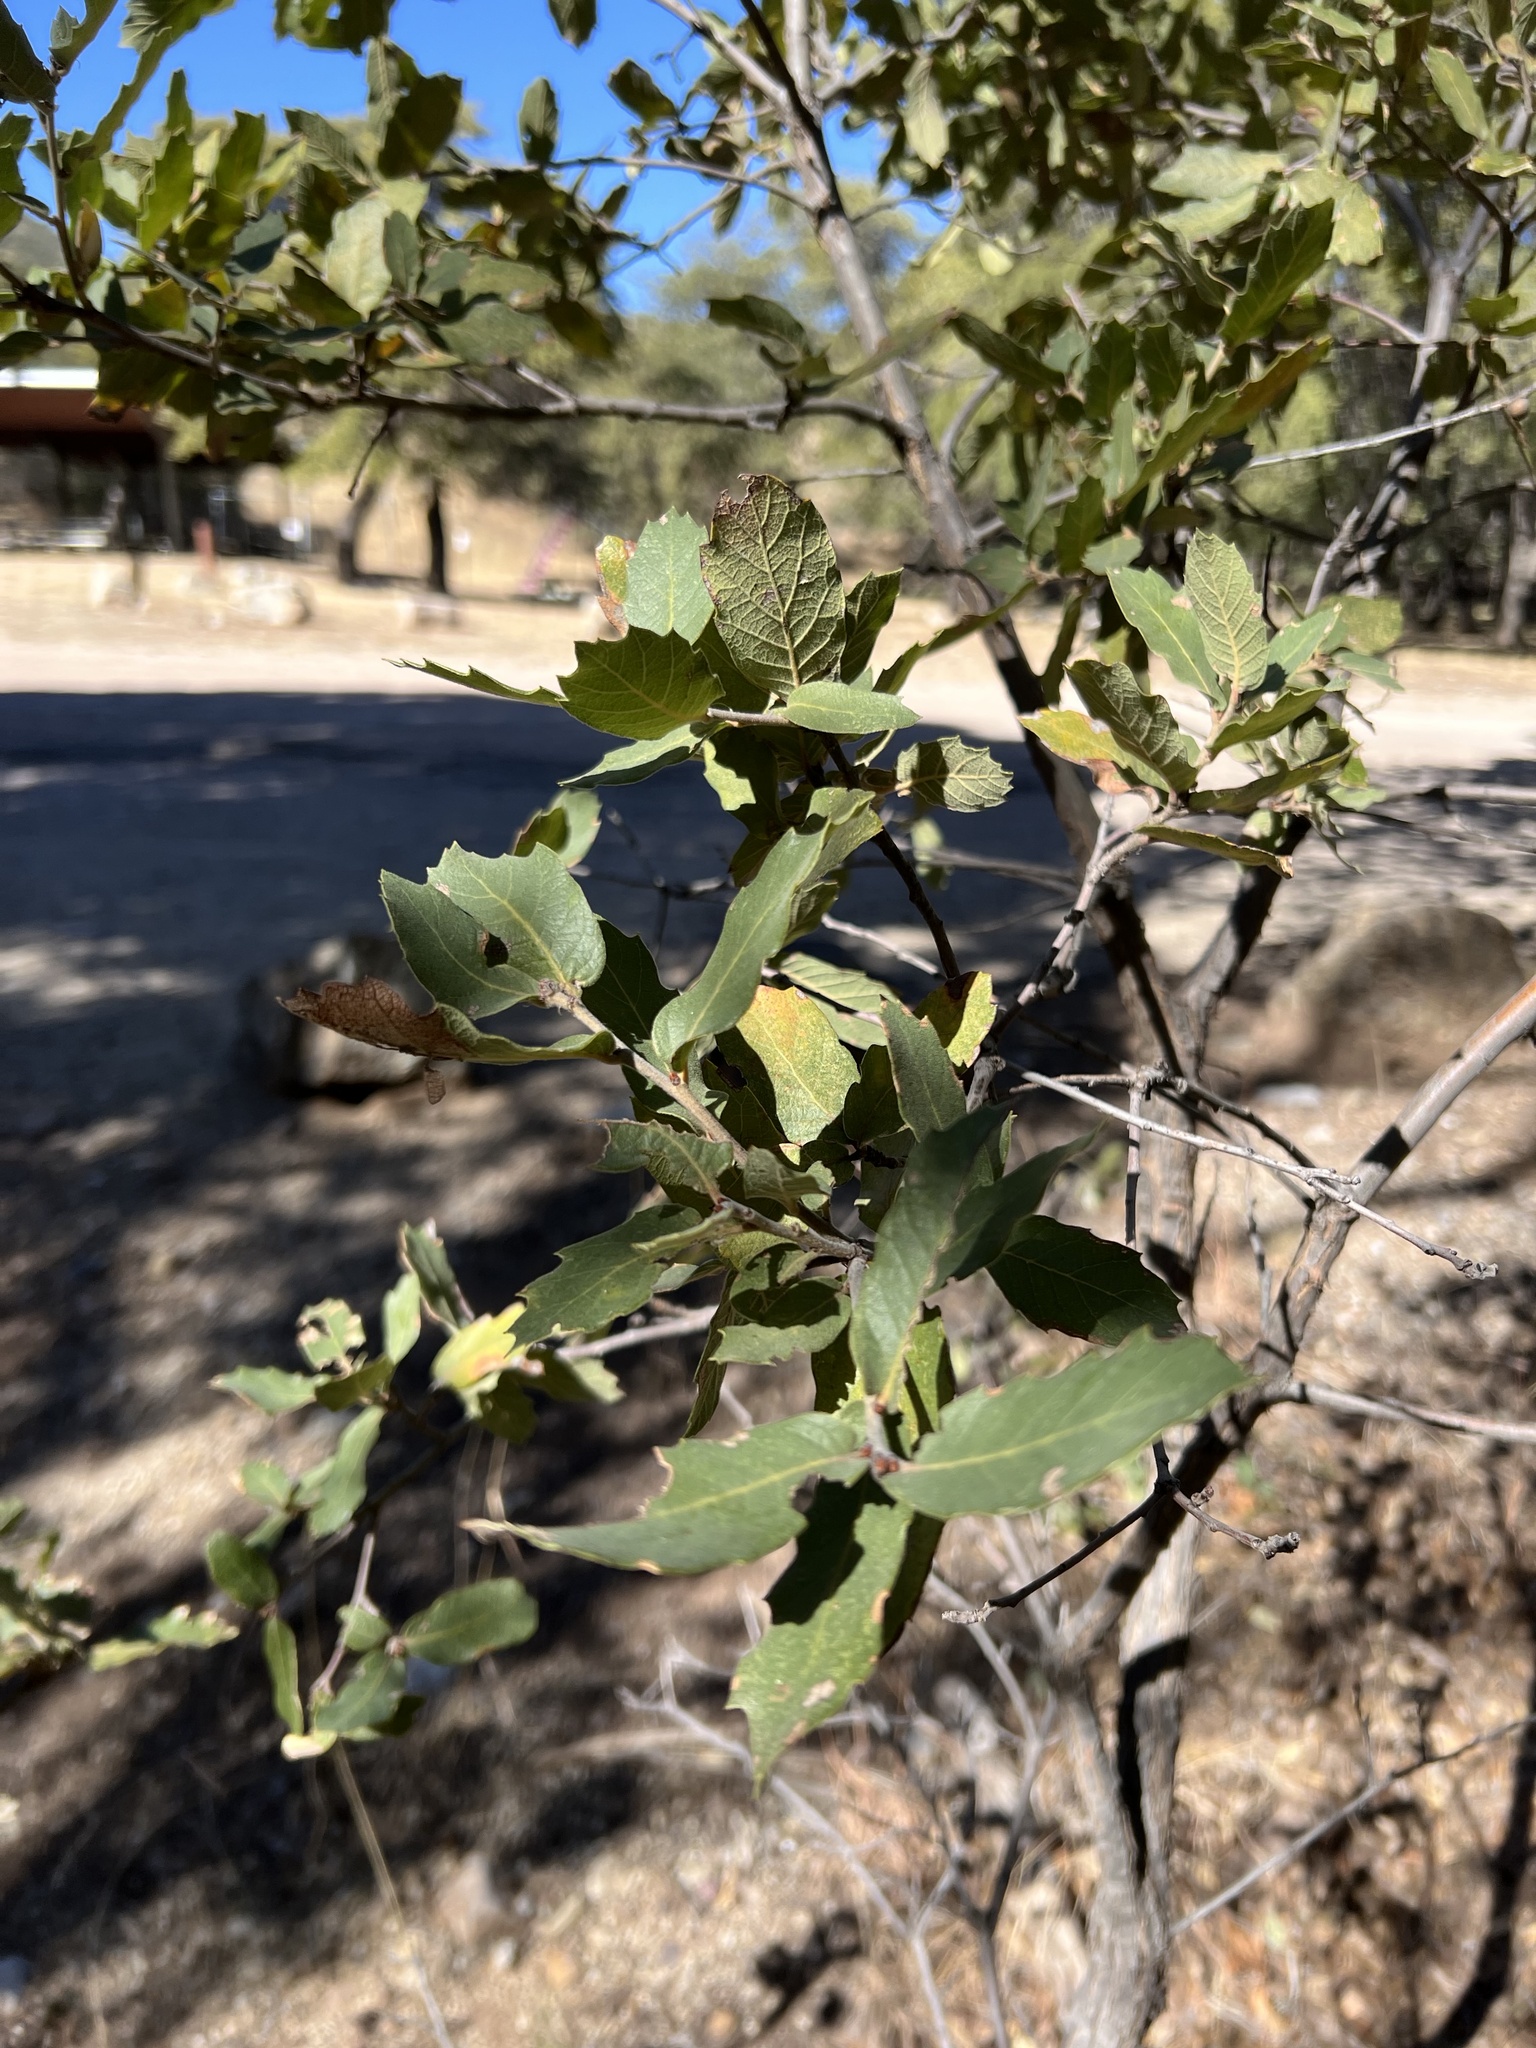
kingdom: Plantae
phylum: Tracheophyta
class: Magnoliopsida
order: Fagales
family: Fagaceae
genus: Quercus
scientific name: Quercus arizonica
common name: Arizona white oak
